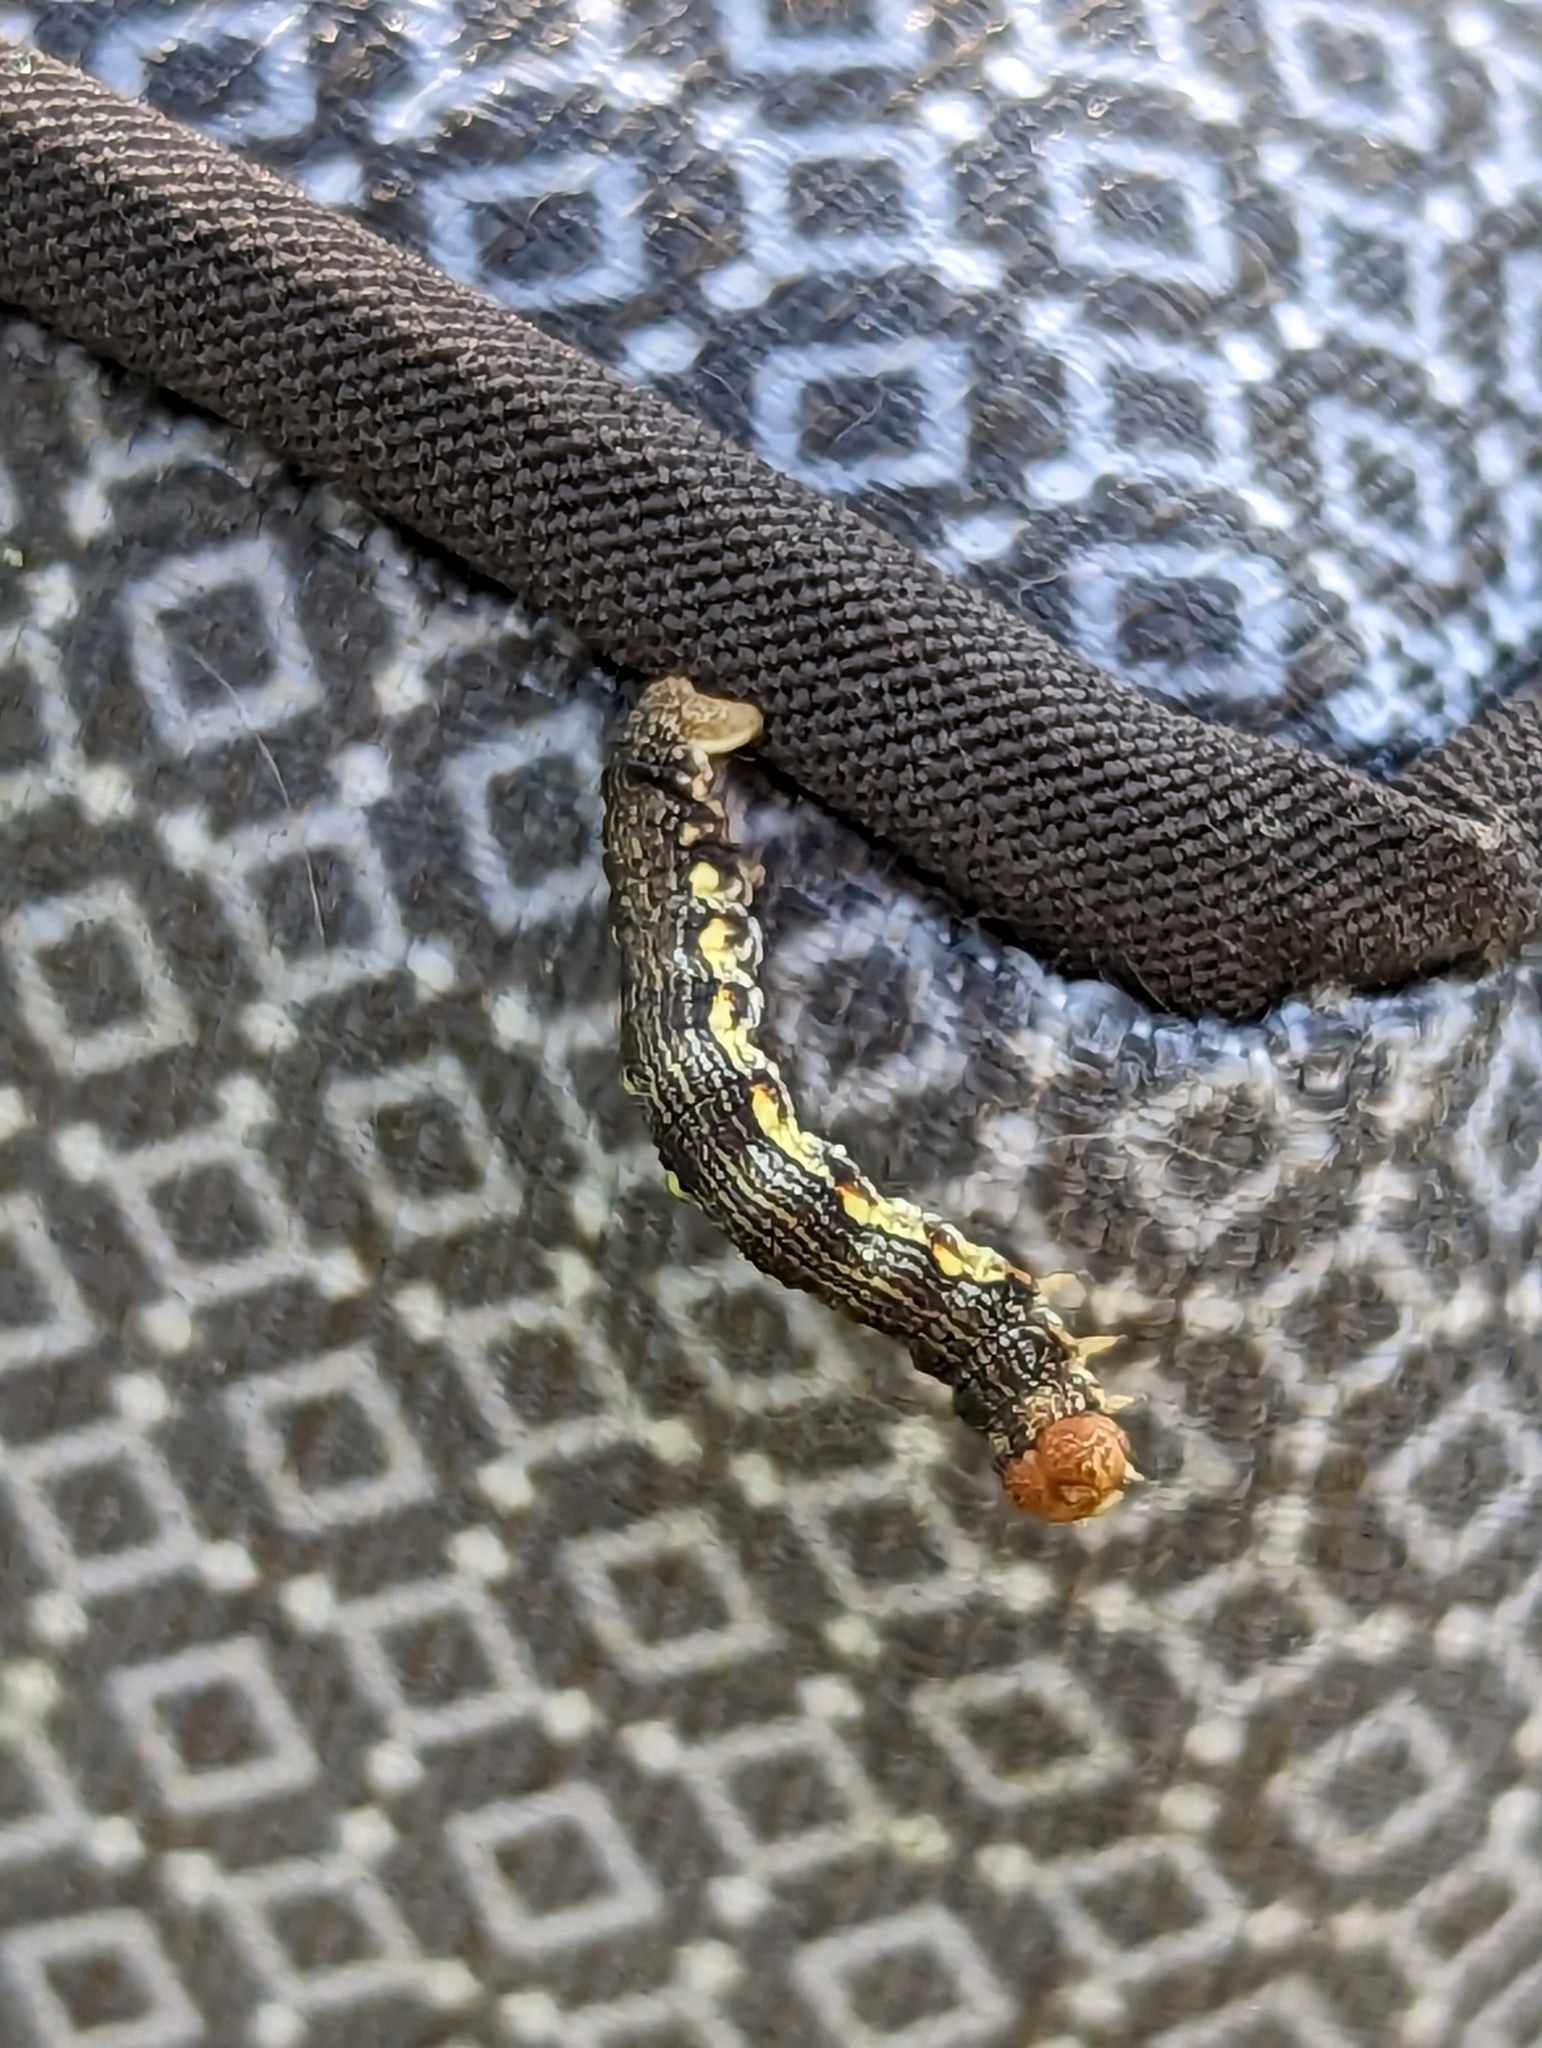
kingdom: Animalia
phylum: Arthropoda
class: Insecta
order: Lepidoptera
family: Geometridae
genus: Erannis
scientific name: Erannis vancouverensis
